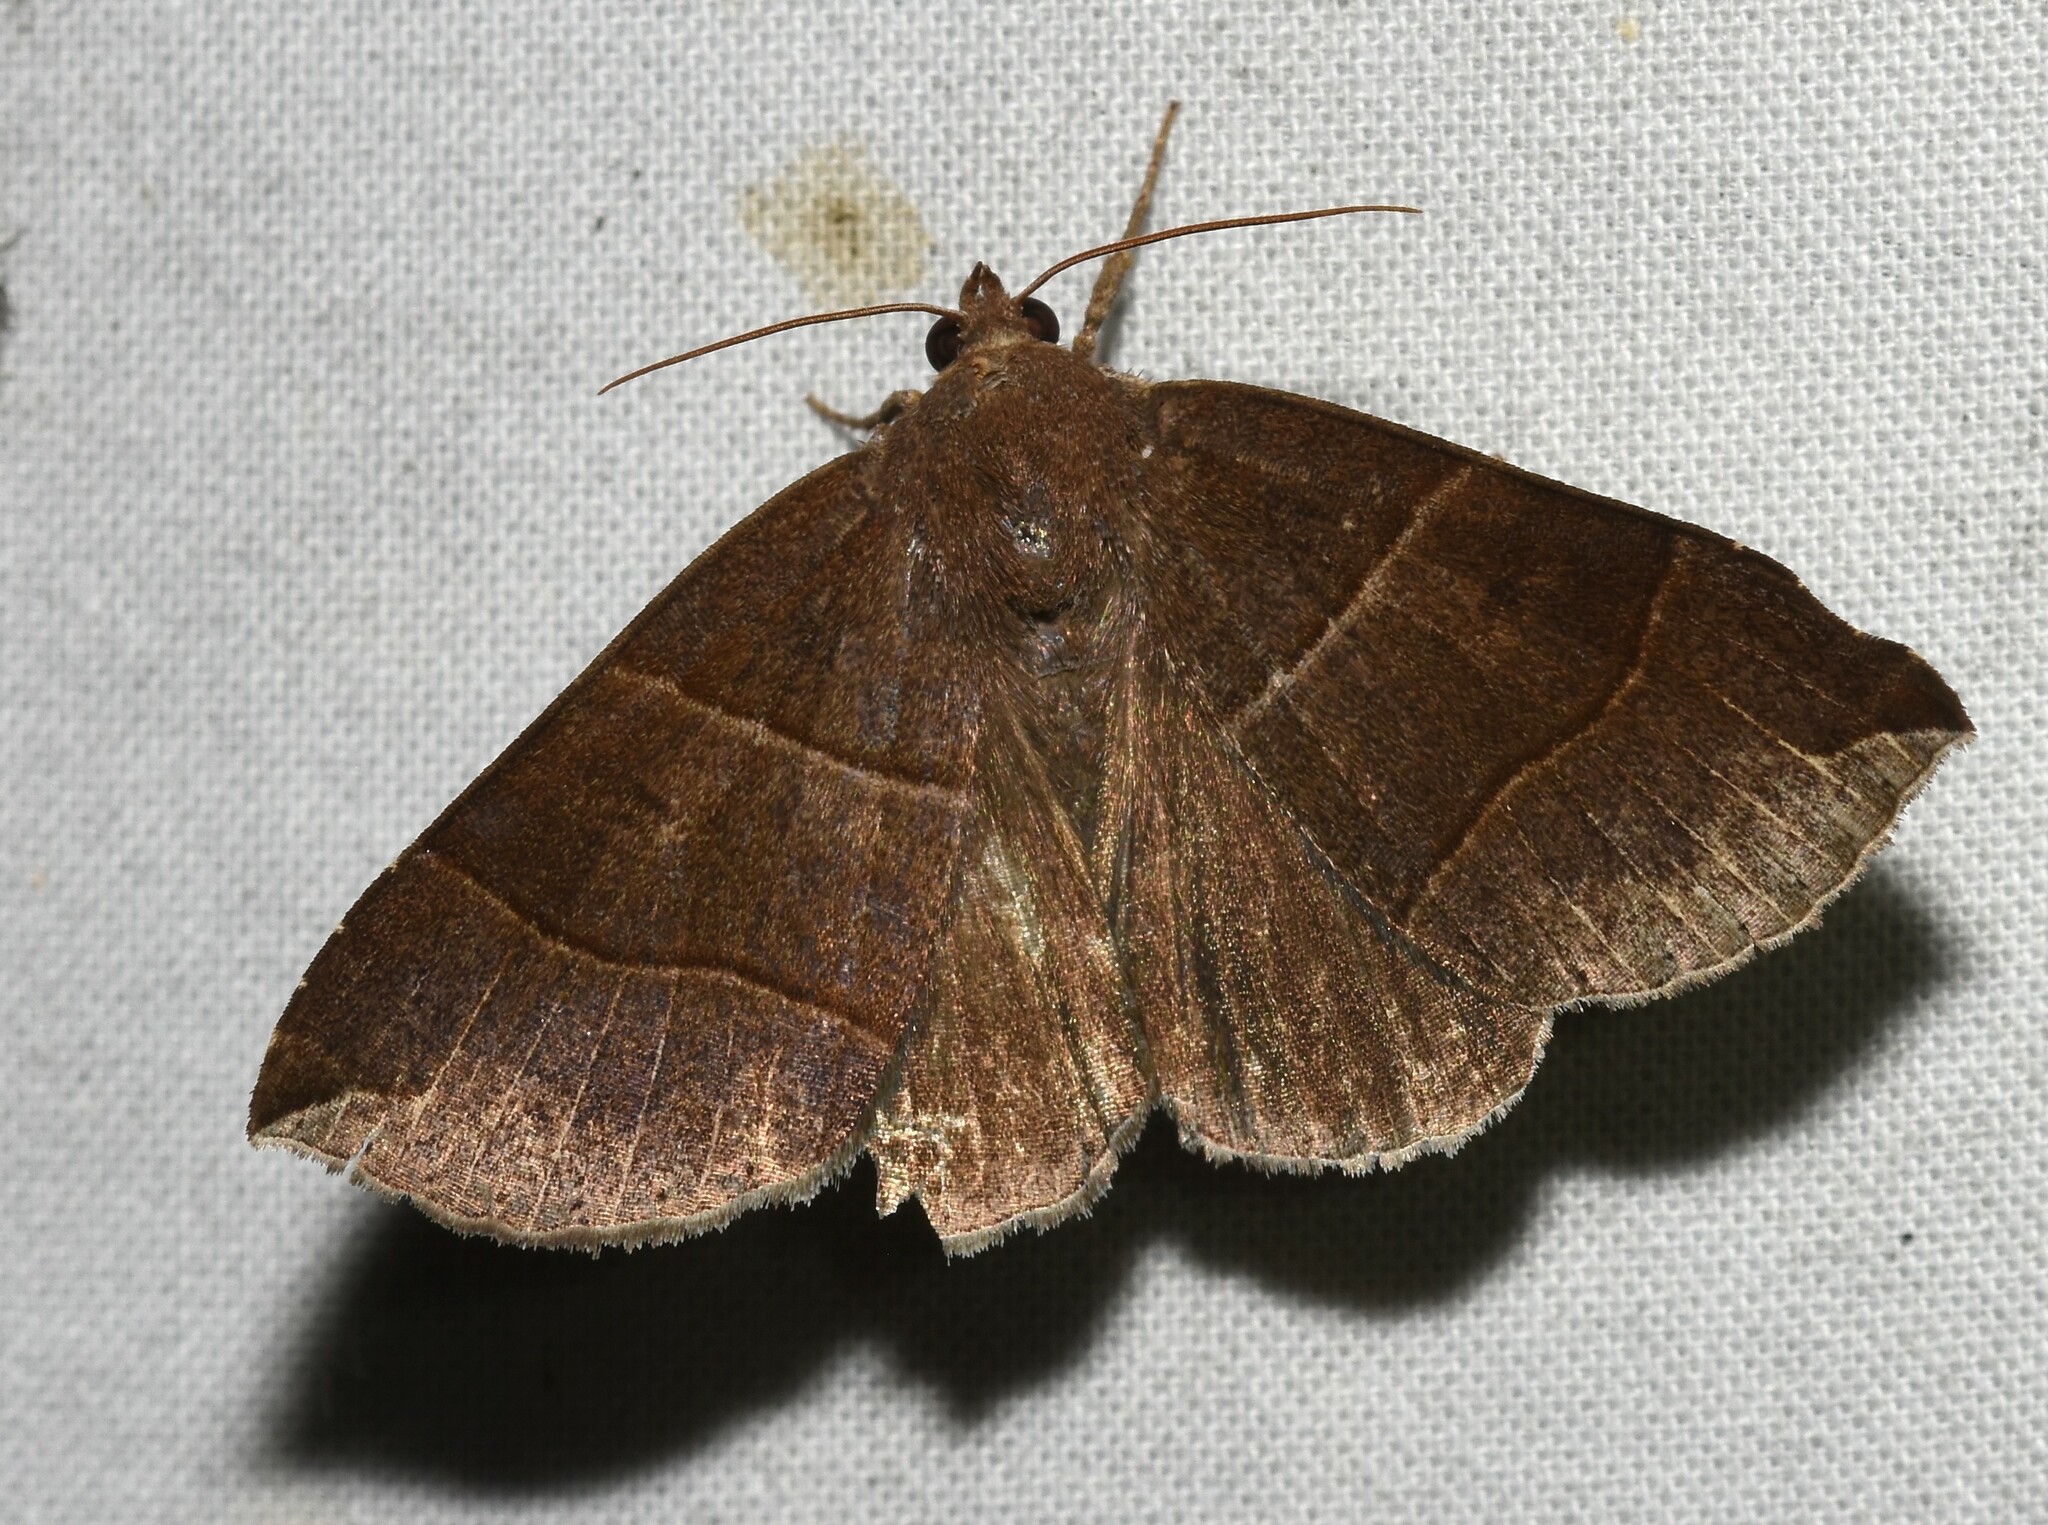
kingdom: Animalia
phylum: Arthropoda
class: Insecta
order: Lepidoptera
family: Erebidae
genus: Parallelia
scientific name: Parallelia bistriaris
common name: Maple looper moth
